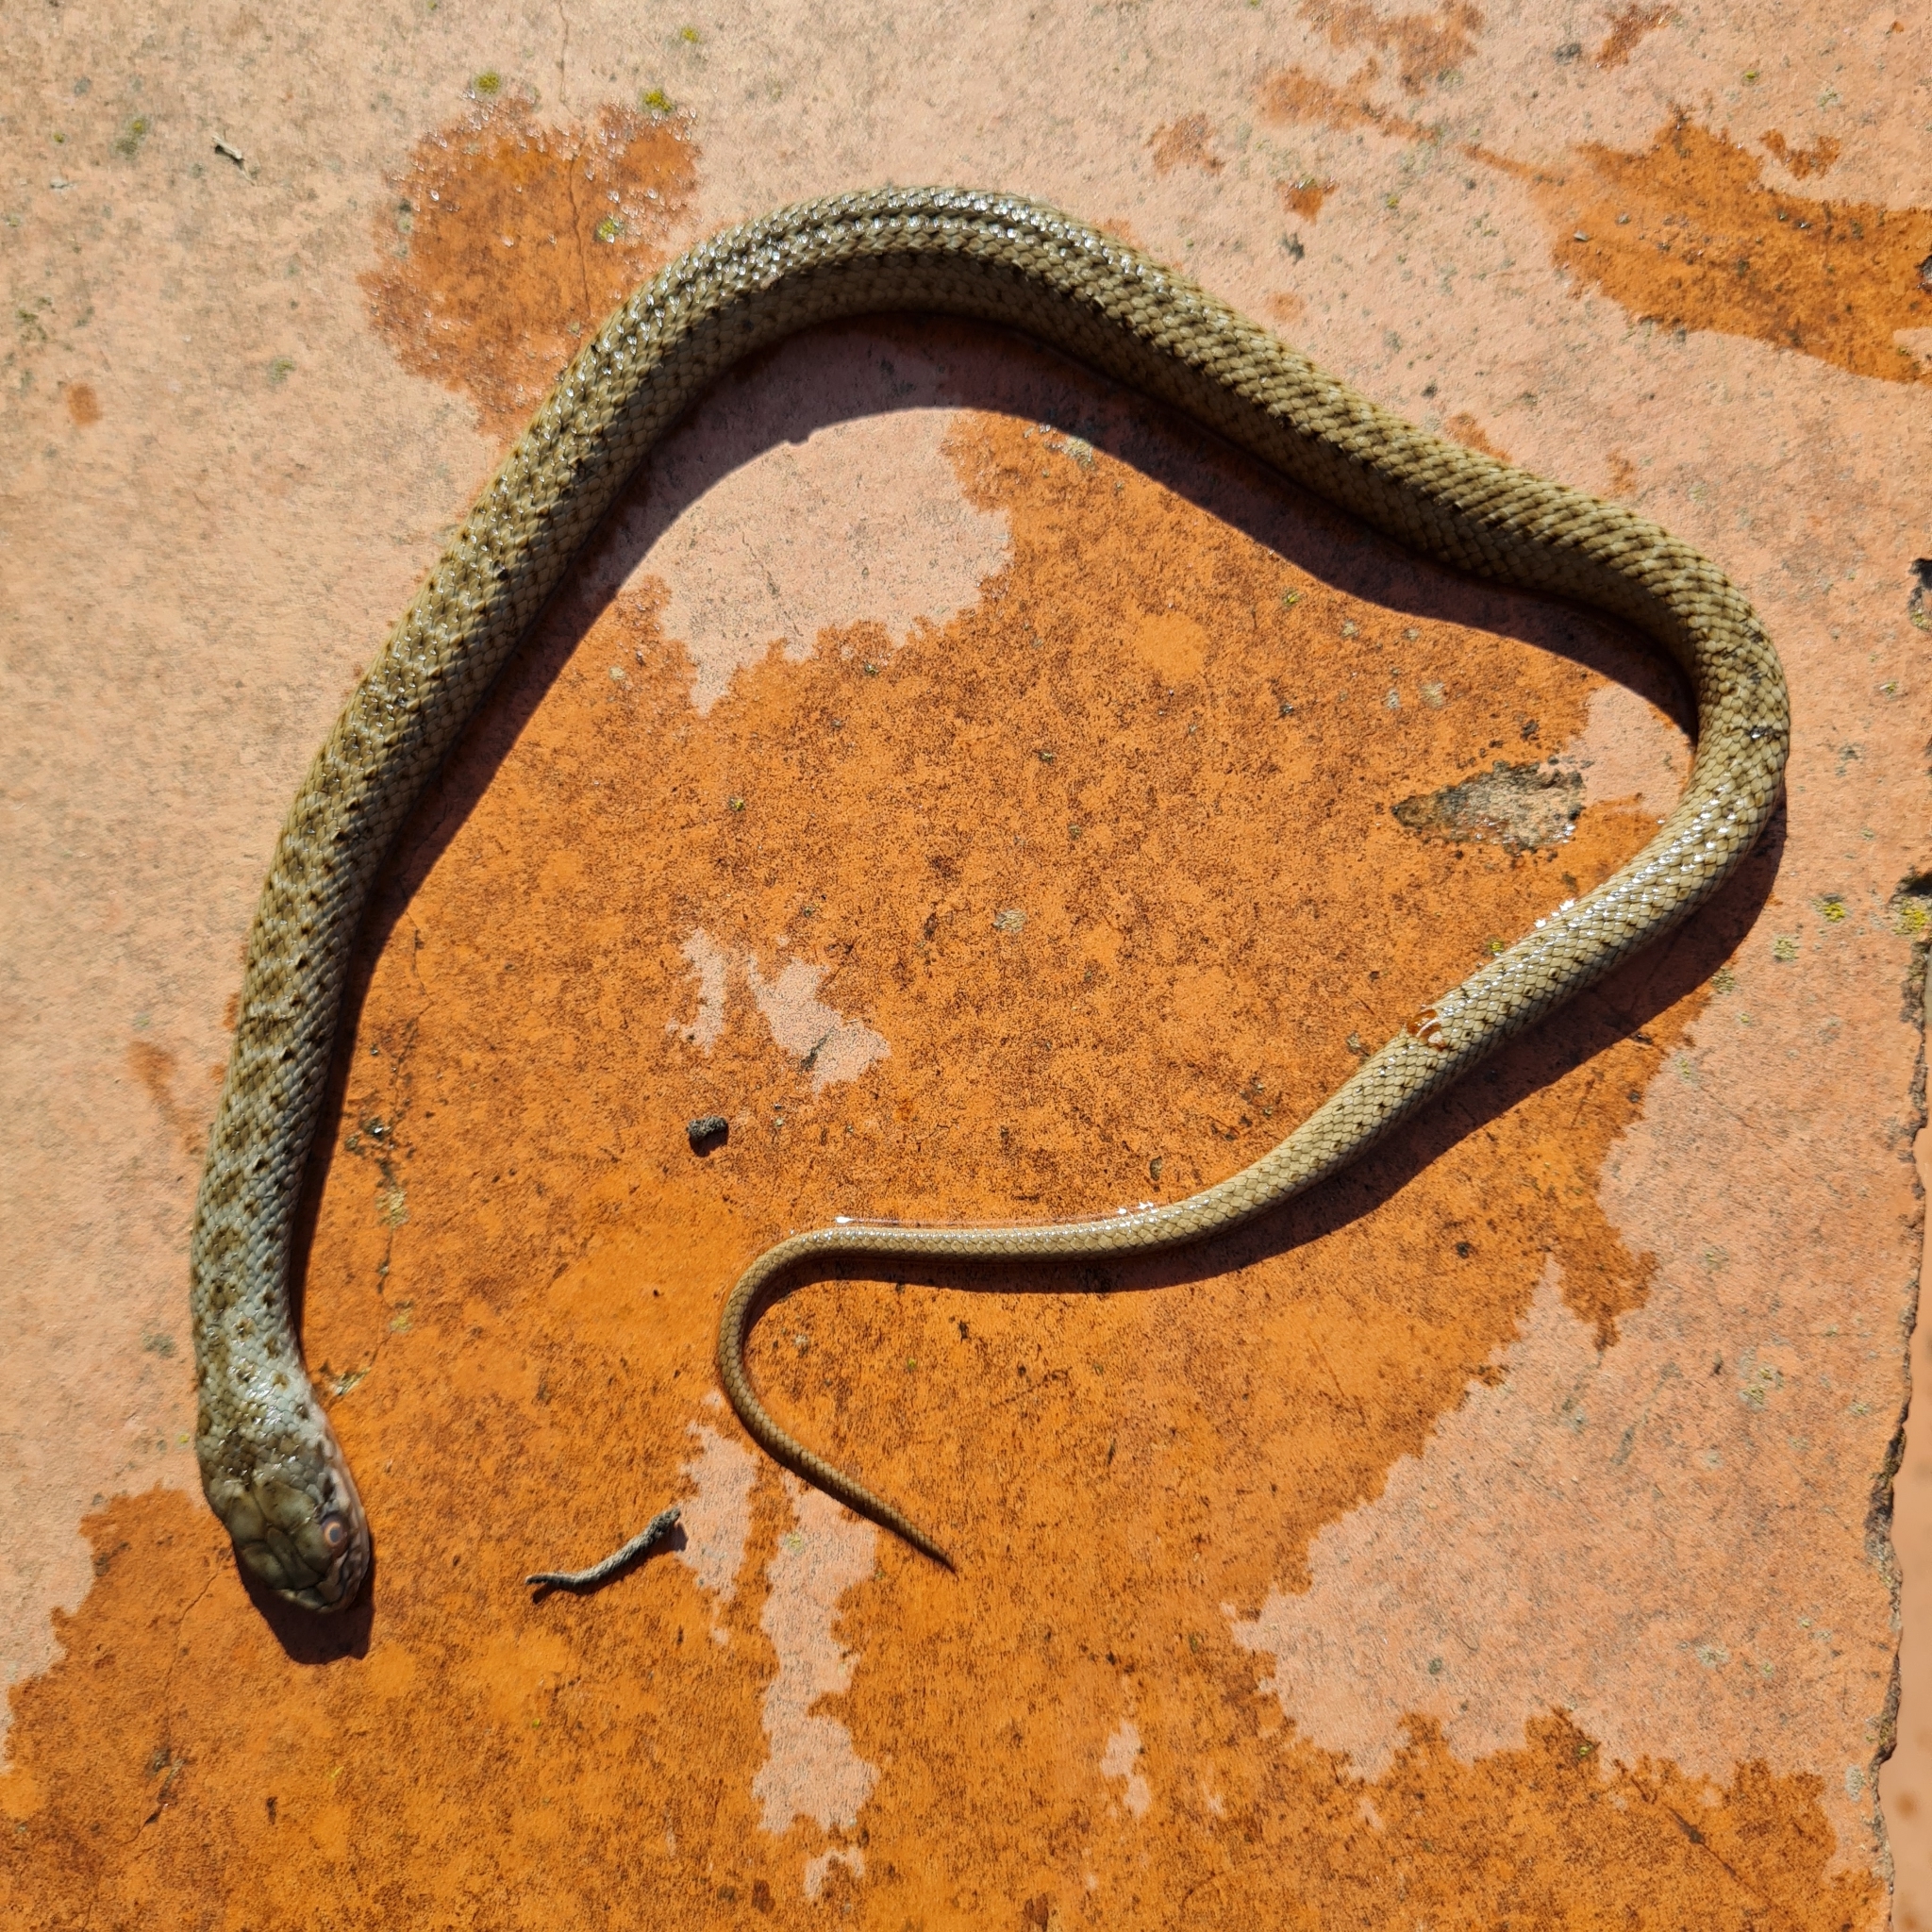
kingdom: Animalia
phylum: Chordata
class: Squamata
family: Psammophiidae
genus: Malpolon
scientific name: Malpolon monspessulanus
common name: Montpellier snake
